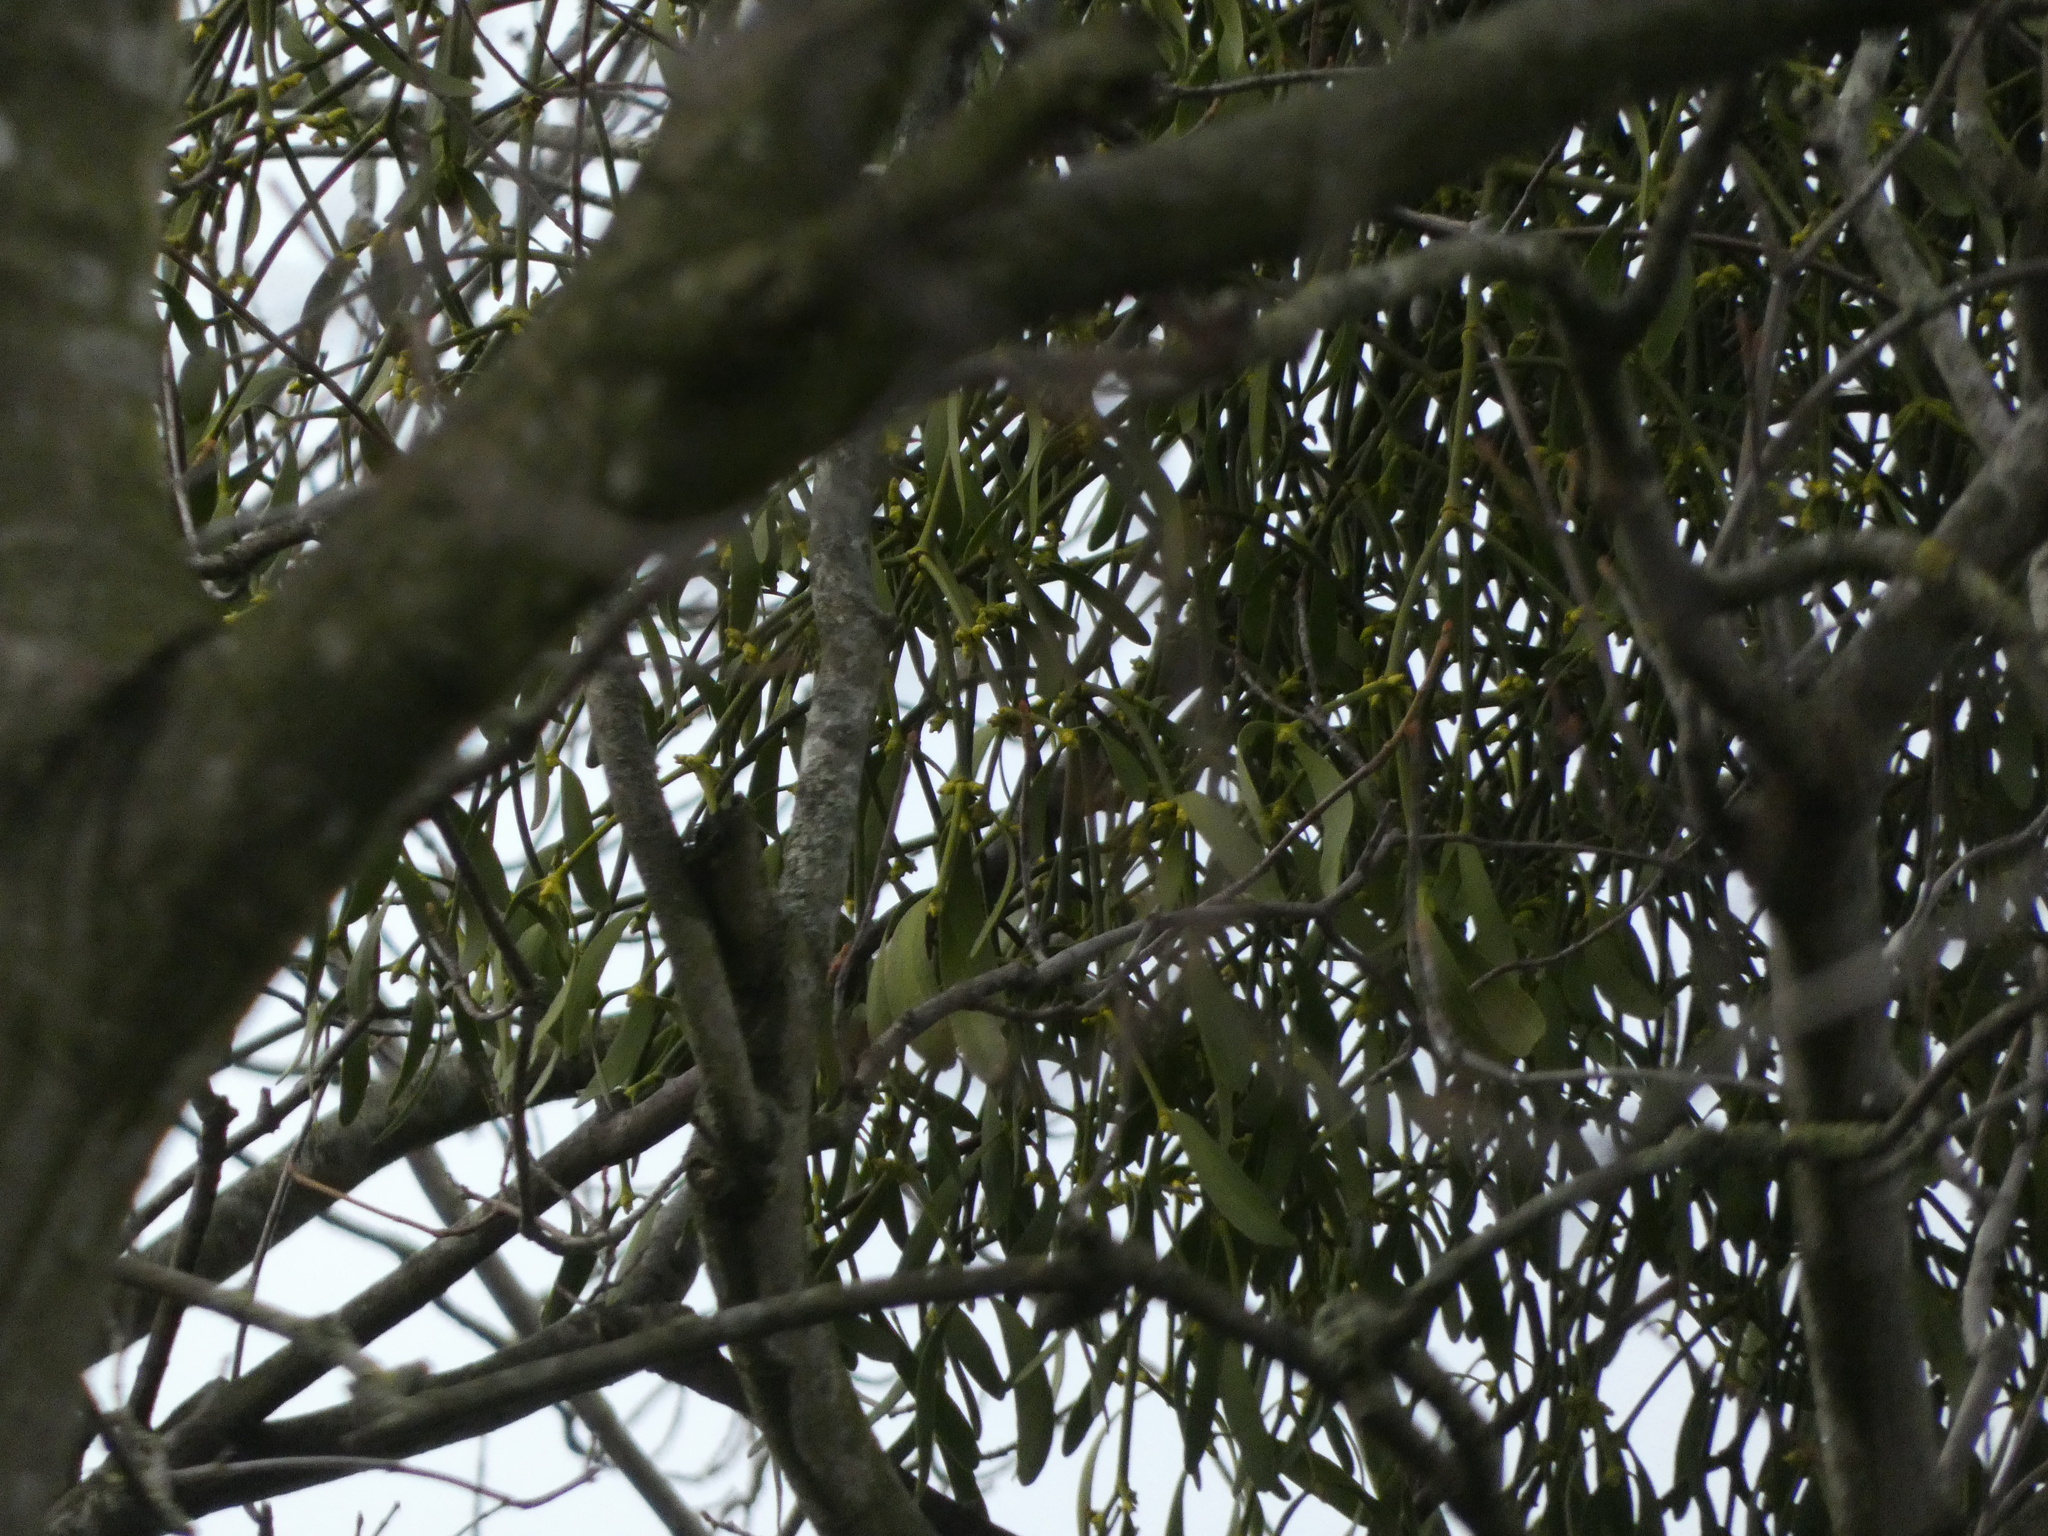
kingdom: Plantae
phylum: Tracheophyta
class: Magnoliopsida
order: Santalales
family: Viscaceae
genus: Viscum
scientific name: Viscum album
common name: Mistletoe
